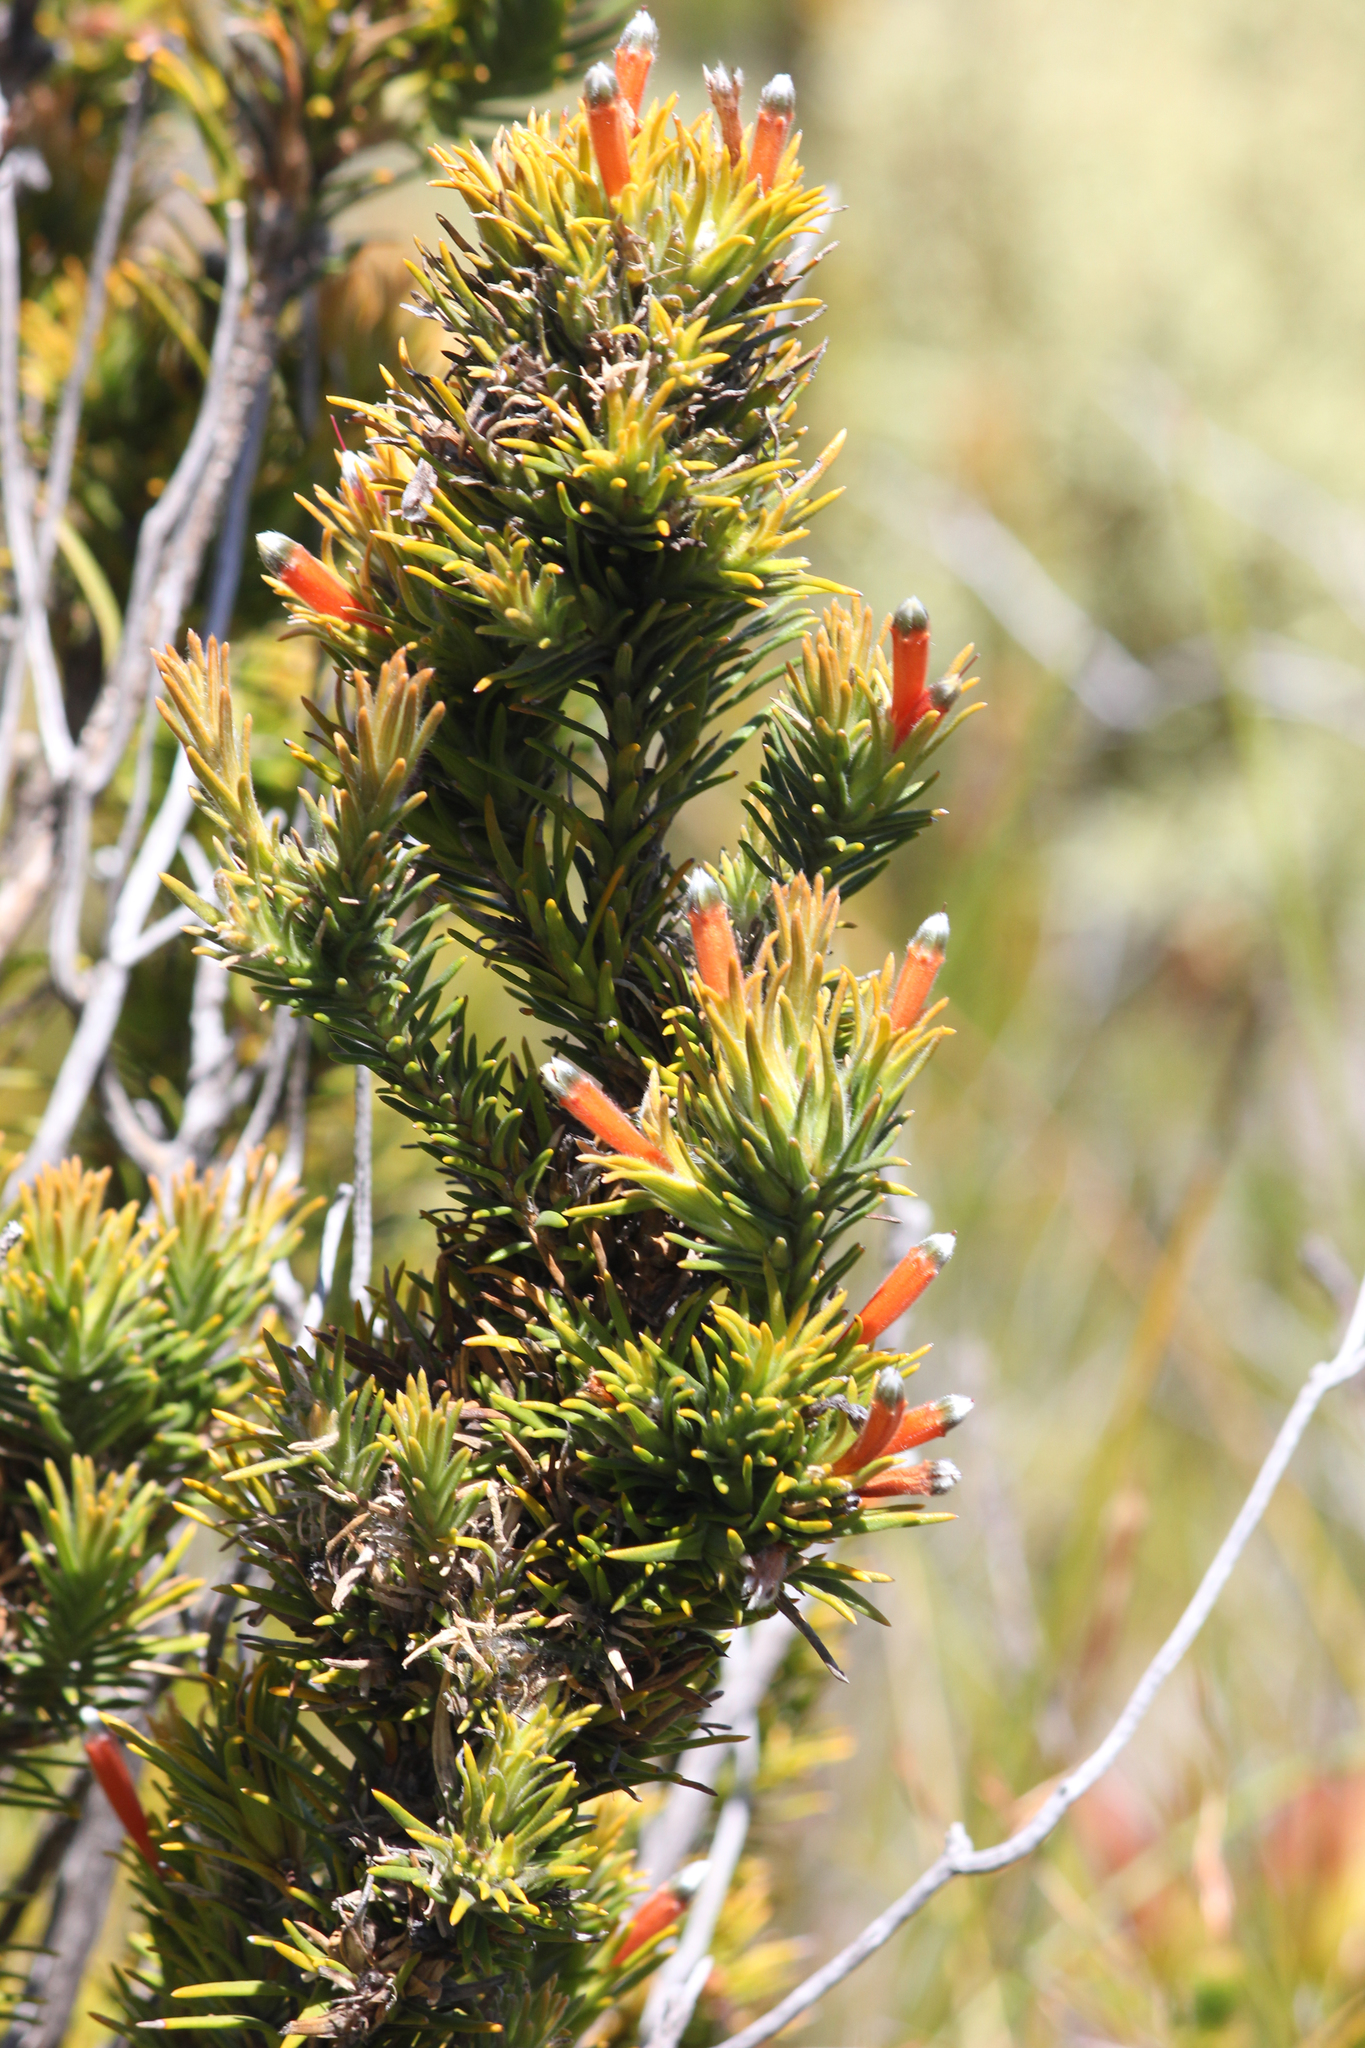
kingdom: Plantae
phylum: Tracheophyta
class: Magnoliopsida
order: Lamiales
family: Stilbaceae
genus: Retzia
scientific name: Retzia capensis
